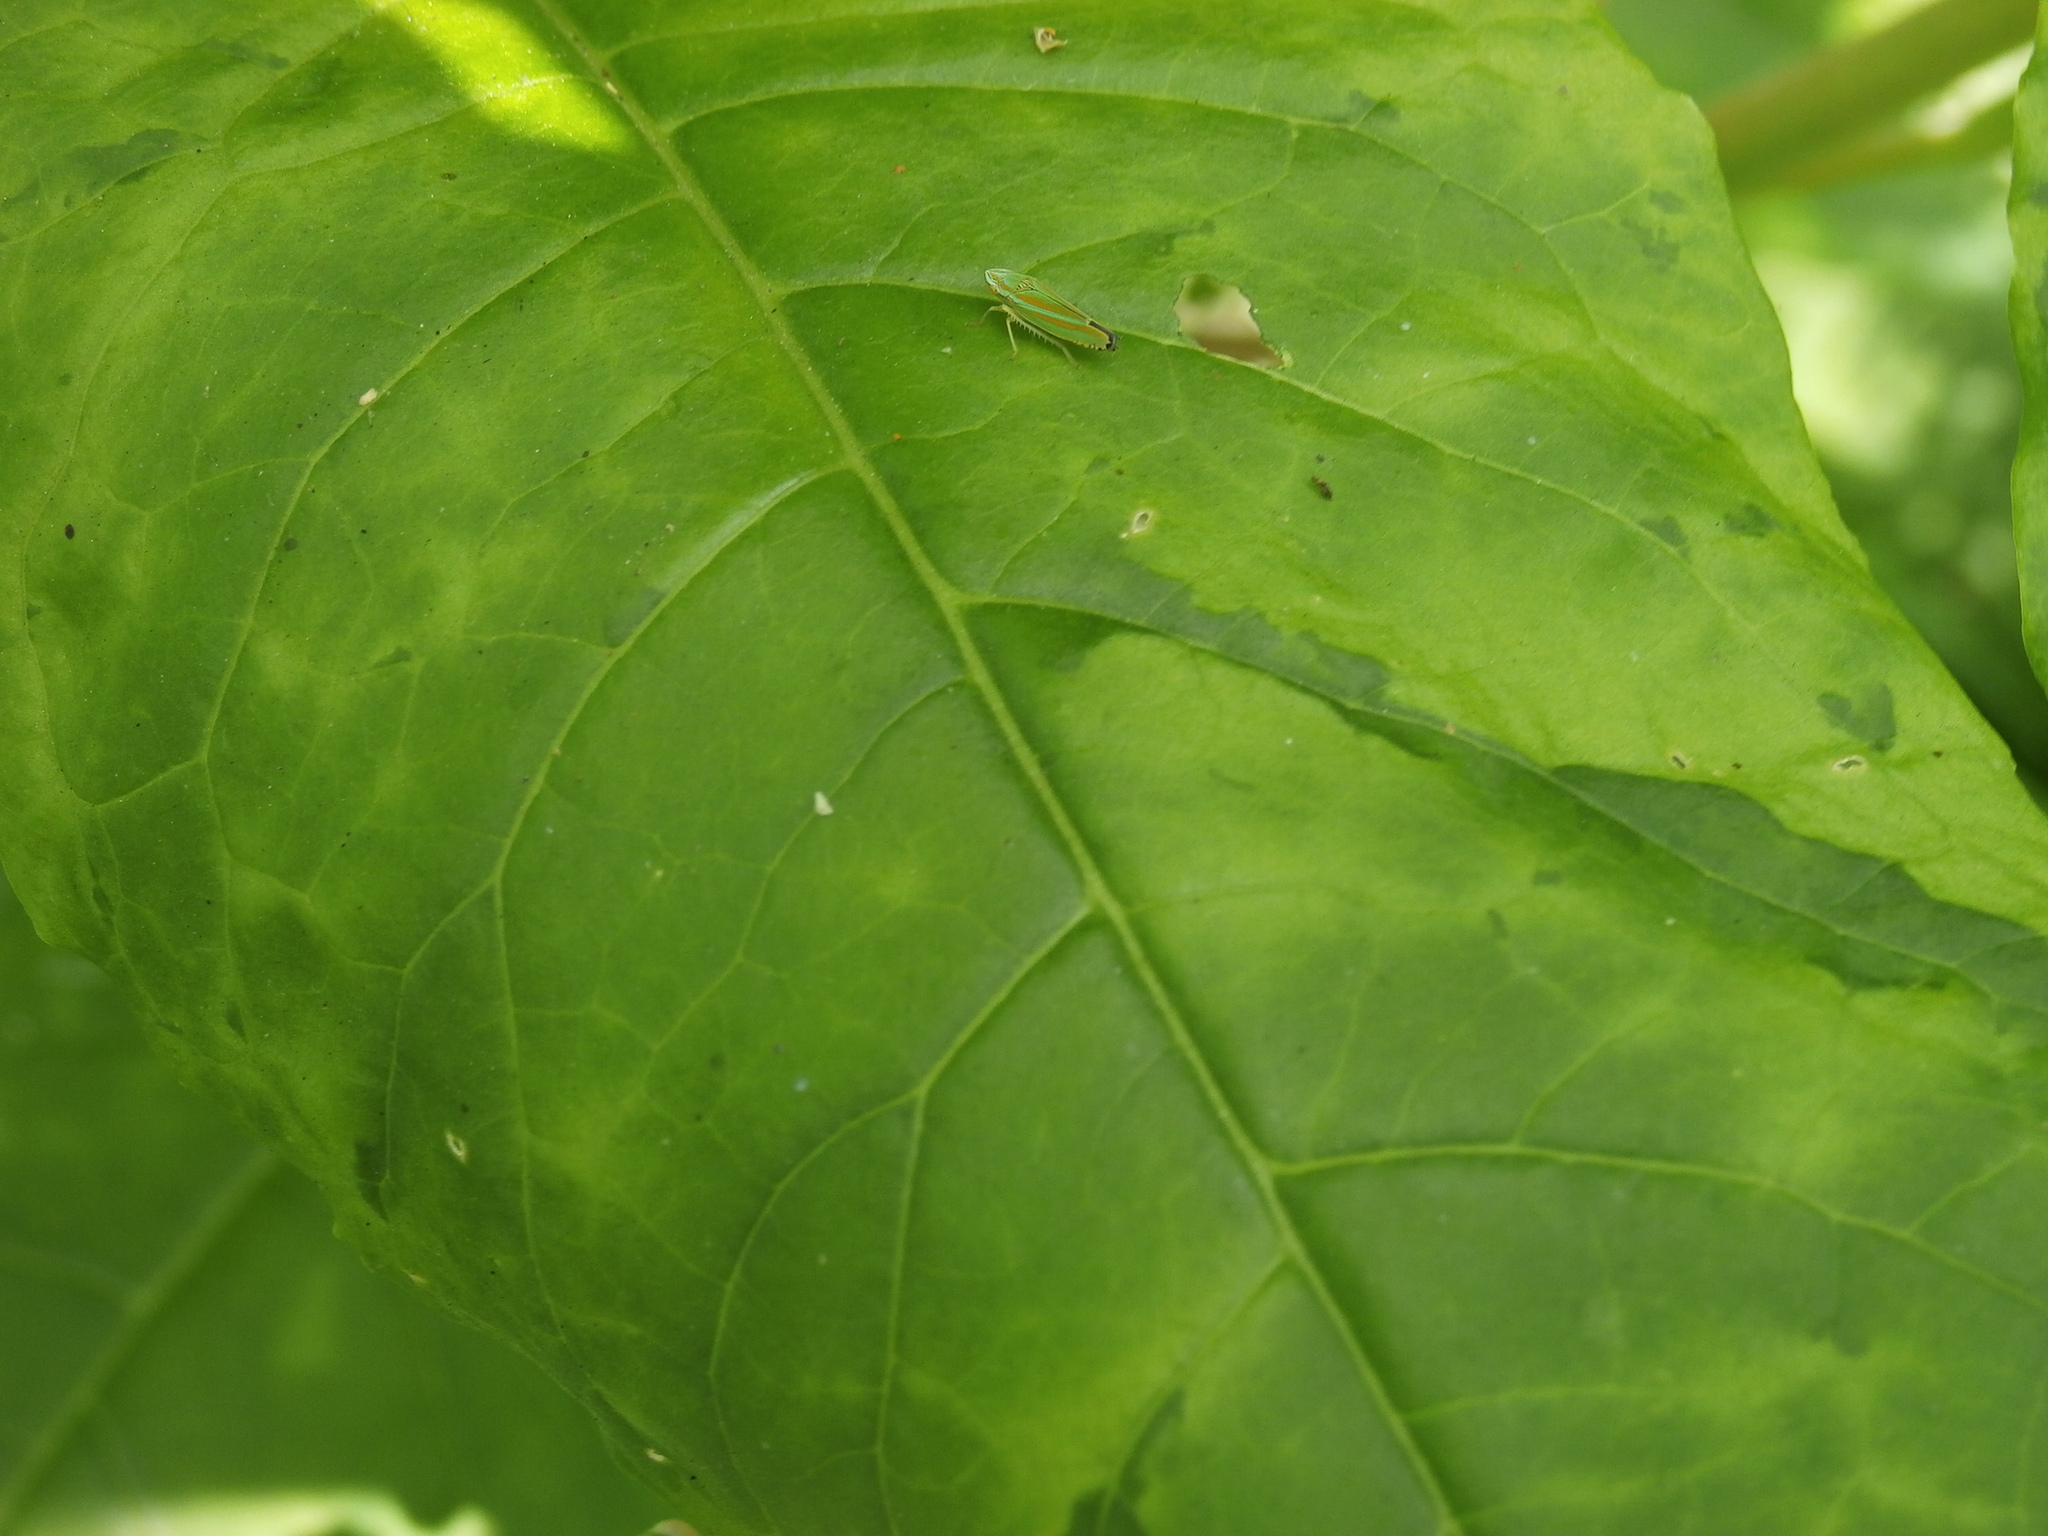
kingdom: Animalia
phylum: Arthropoda
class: Insecta
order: Hemiptera
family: Cicadellidae
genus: Graphocephala
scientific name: Graphocephala versuta
